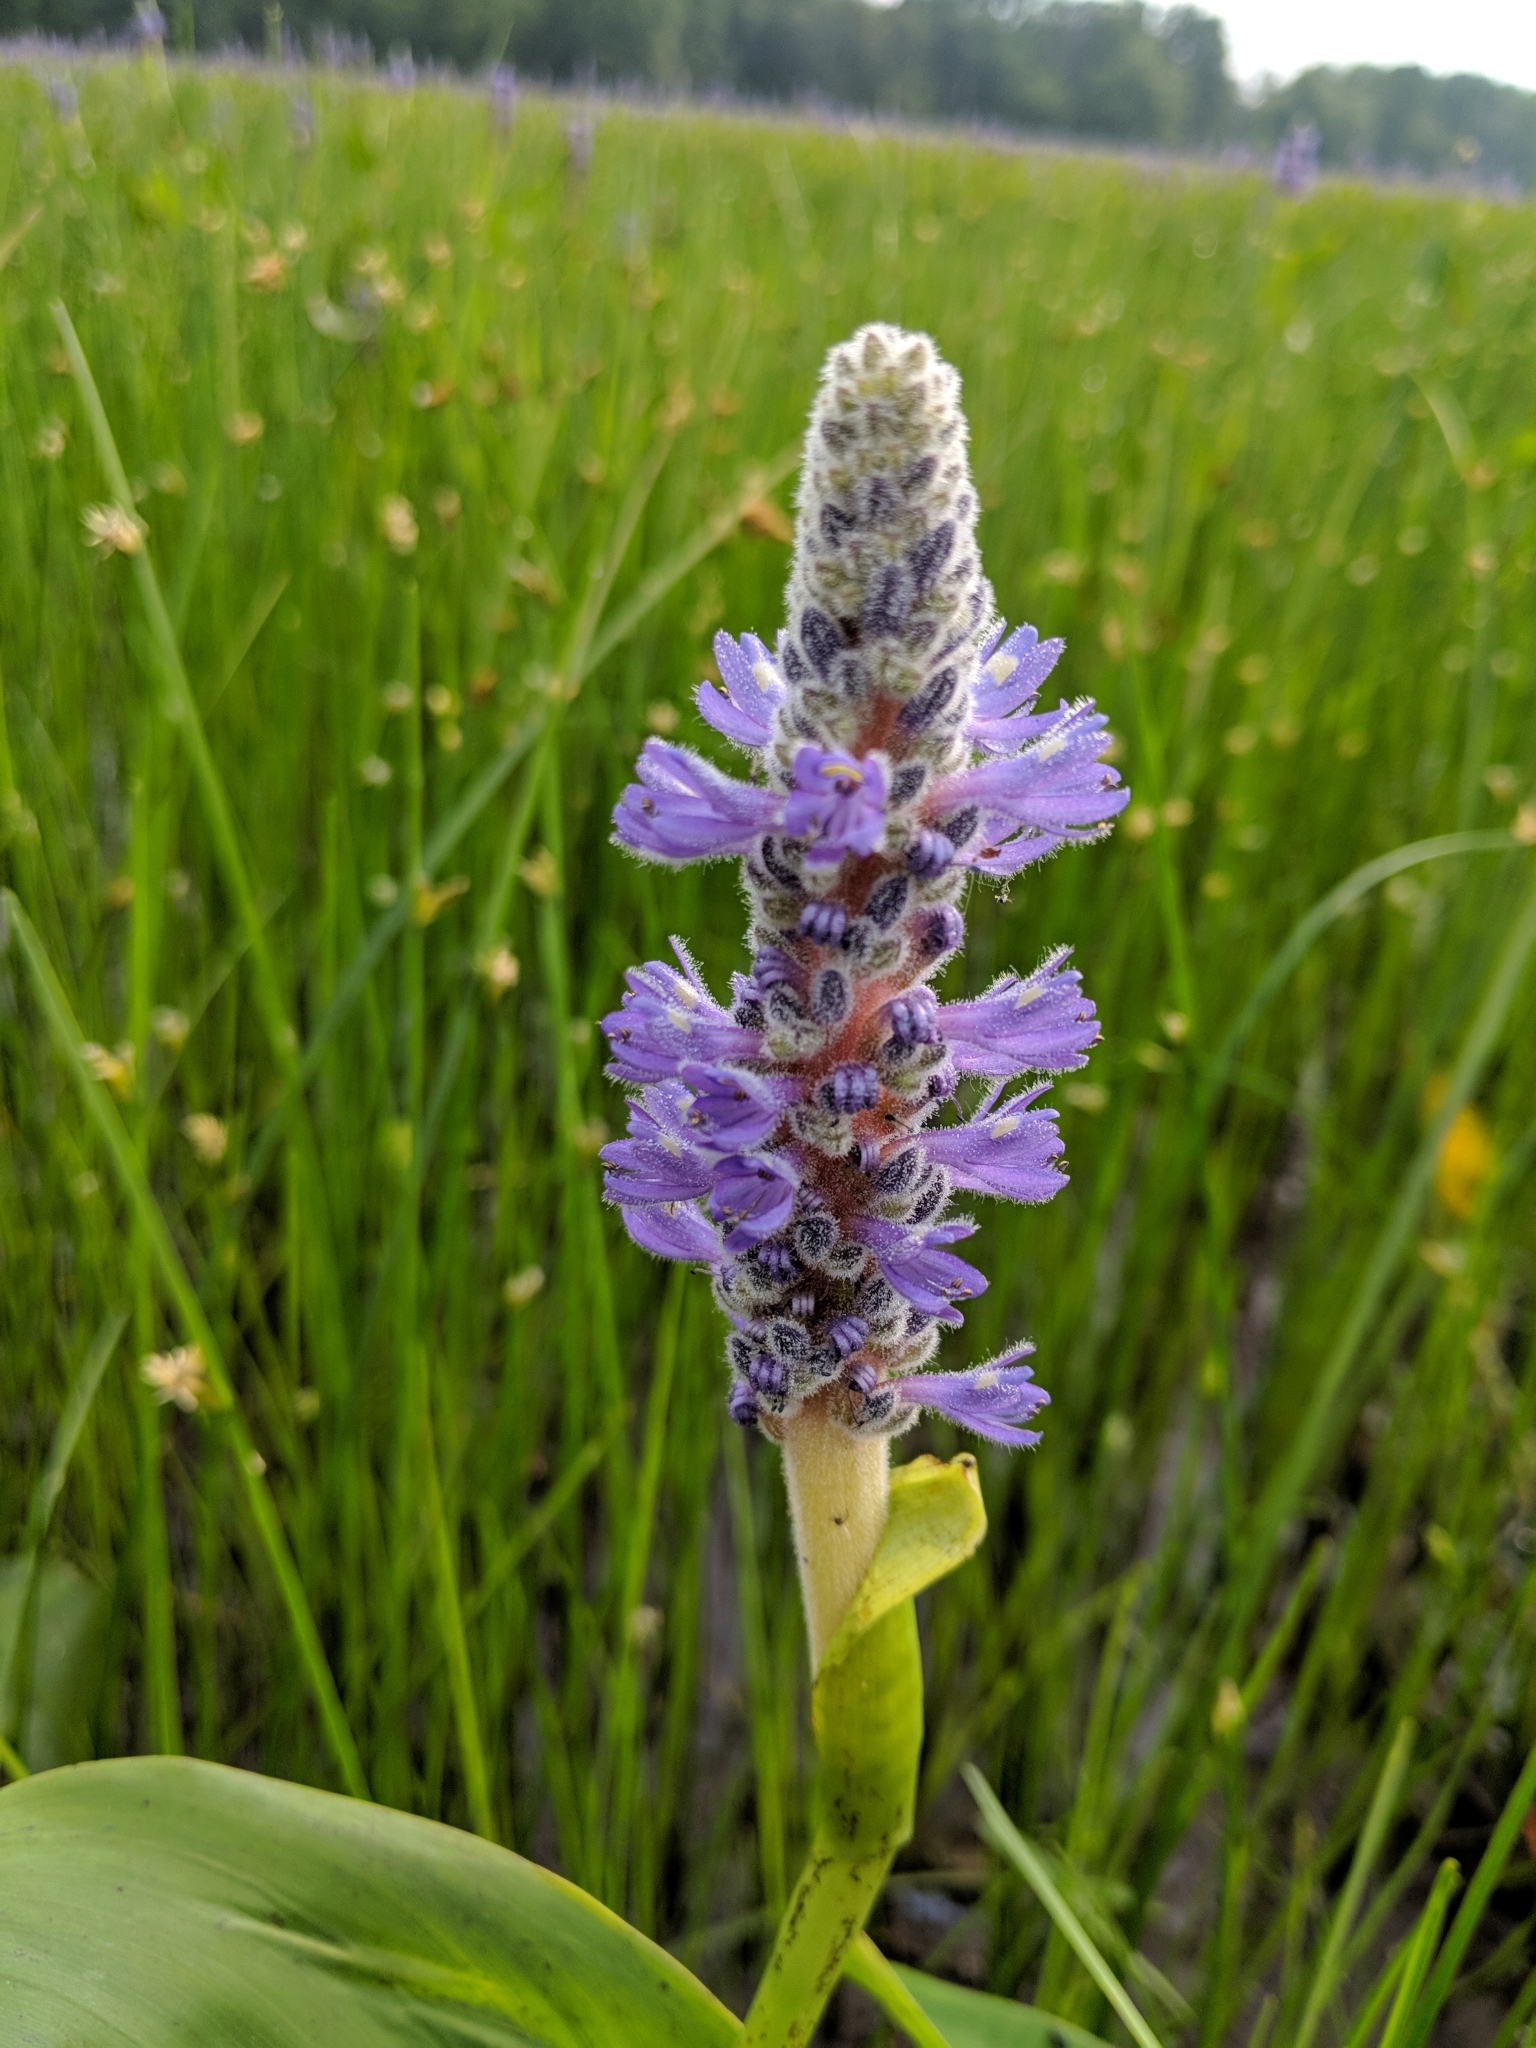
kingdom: Plantae
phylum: Tracheophyta
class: Liliopsida
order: Commelinales
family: Pontederiaceae
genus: Pontederia
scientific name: Pontederia cordata
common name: Pickerelweed
